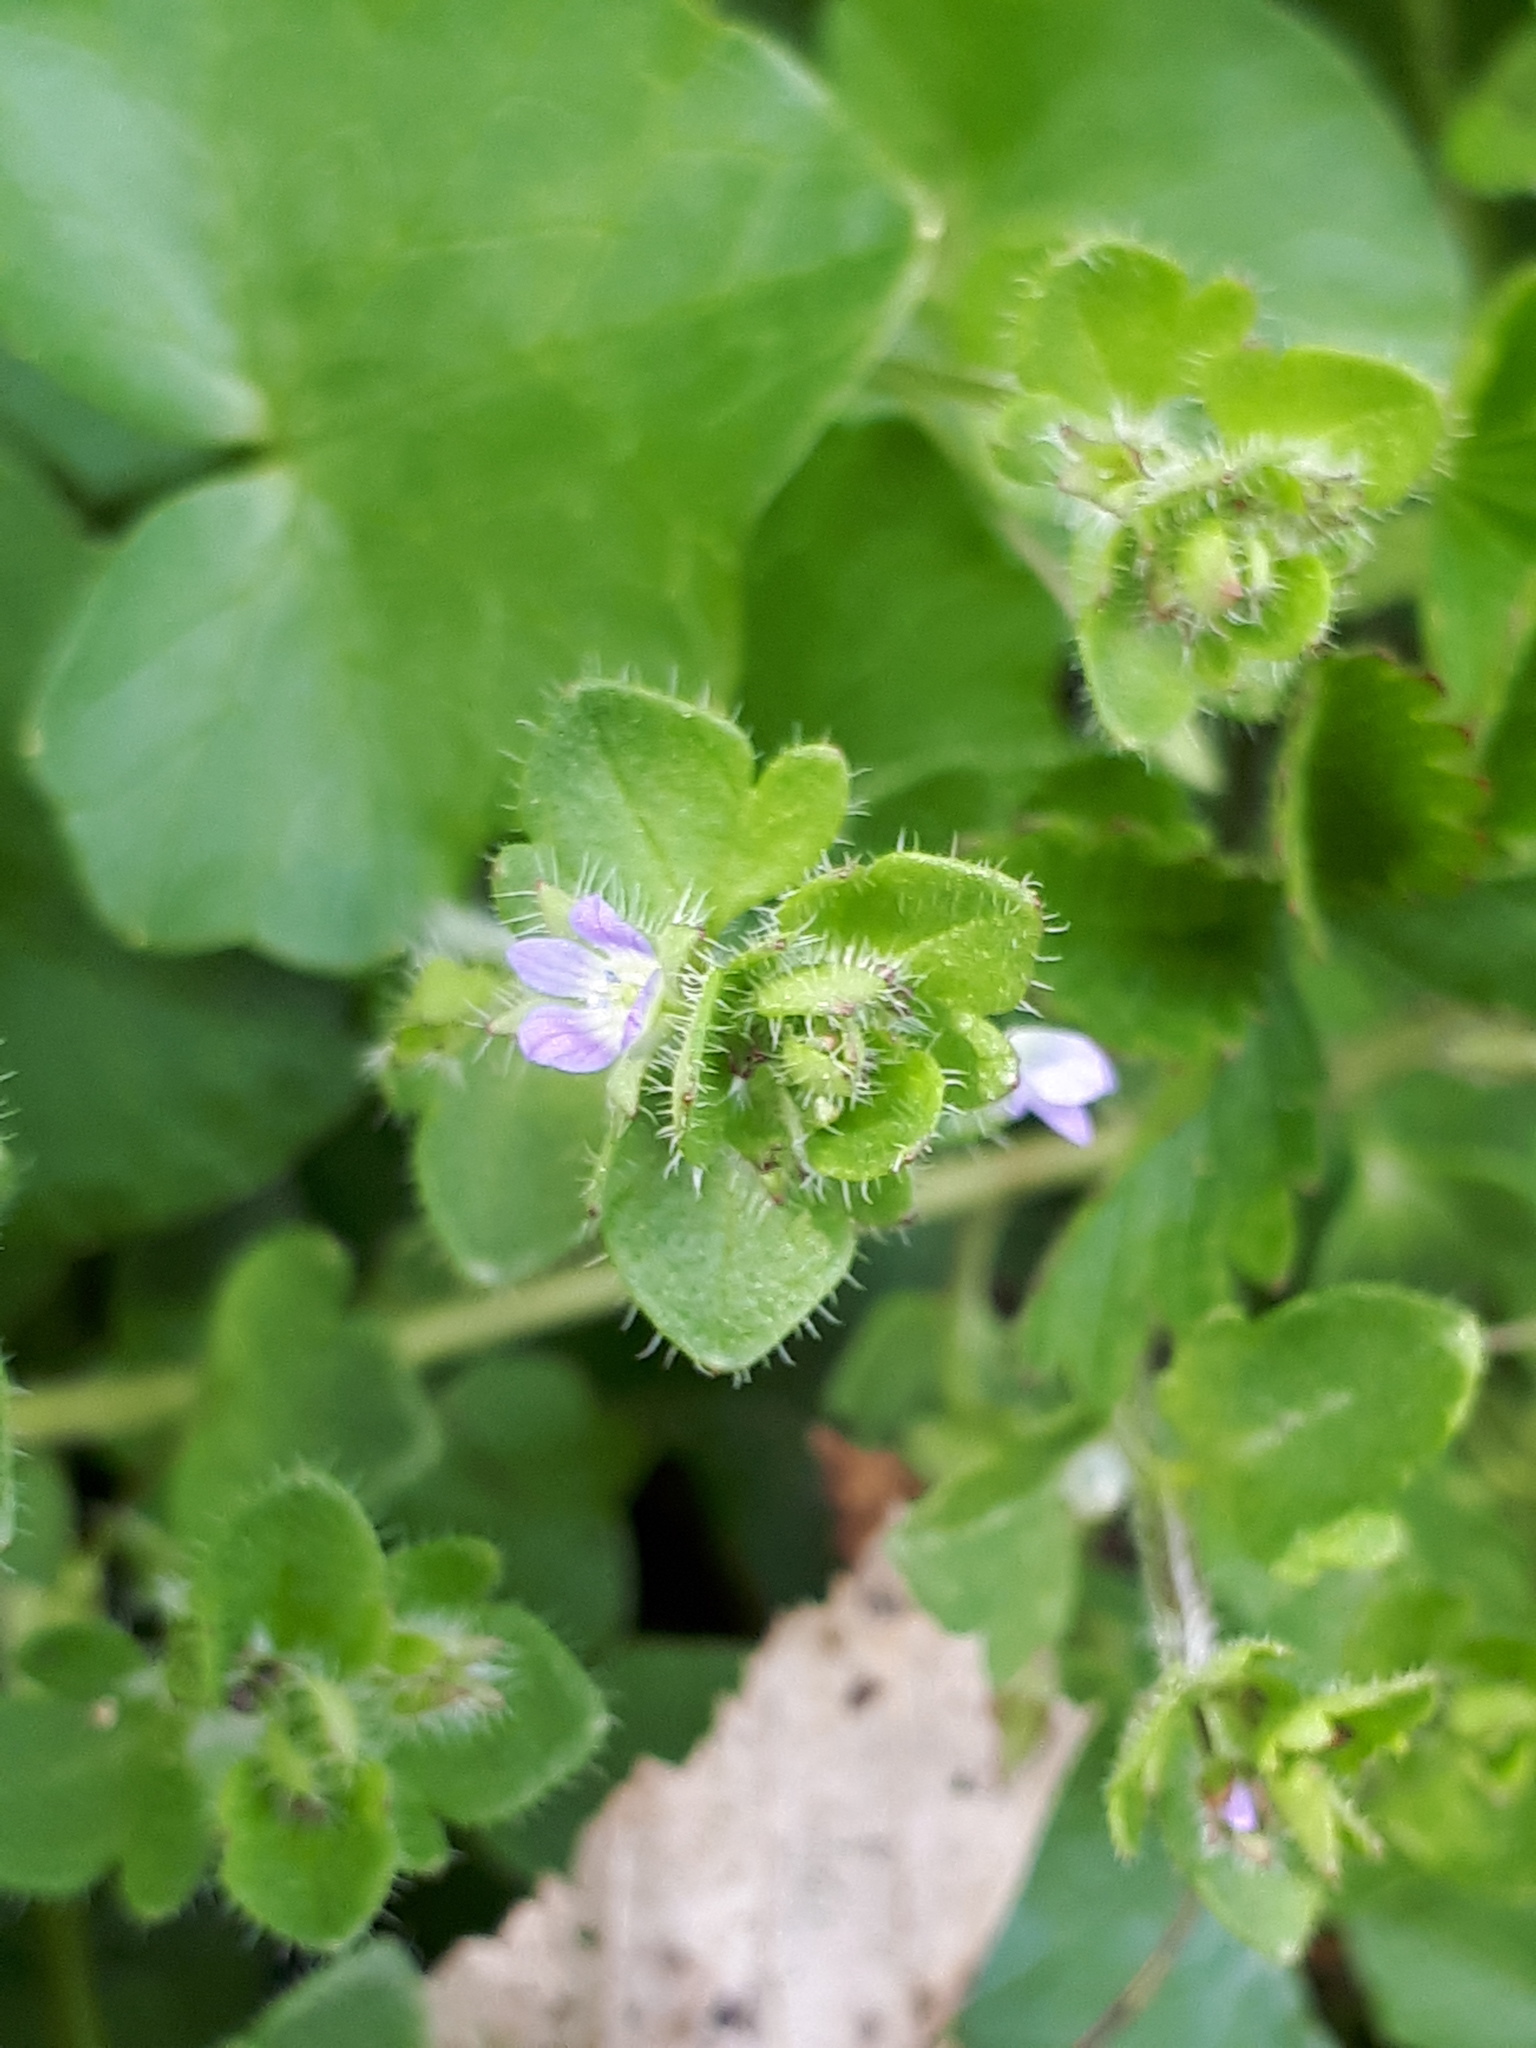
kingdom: Plantae
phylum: Tracheophyta
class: Magnoliopsida
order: Lamiales
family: Plantaginaceae
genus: Veronica
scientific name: Veronica hederifolia
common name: Ivy-leaved speedwell
